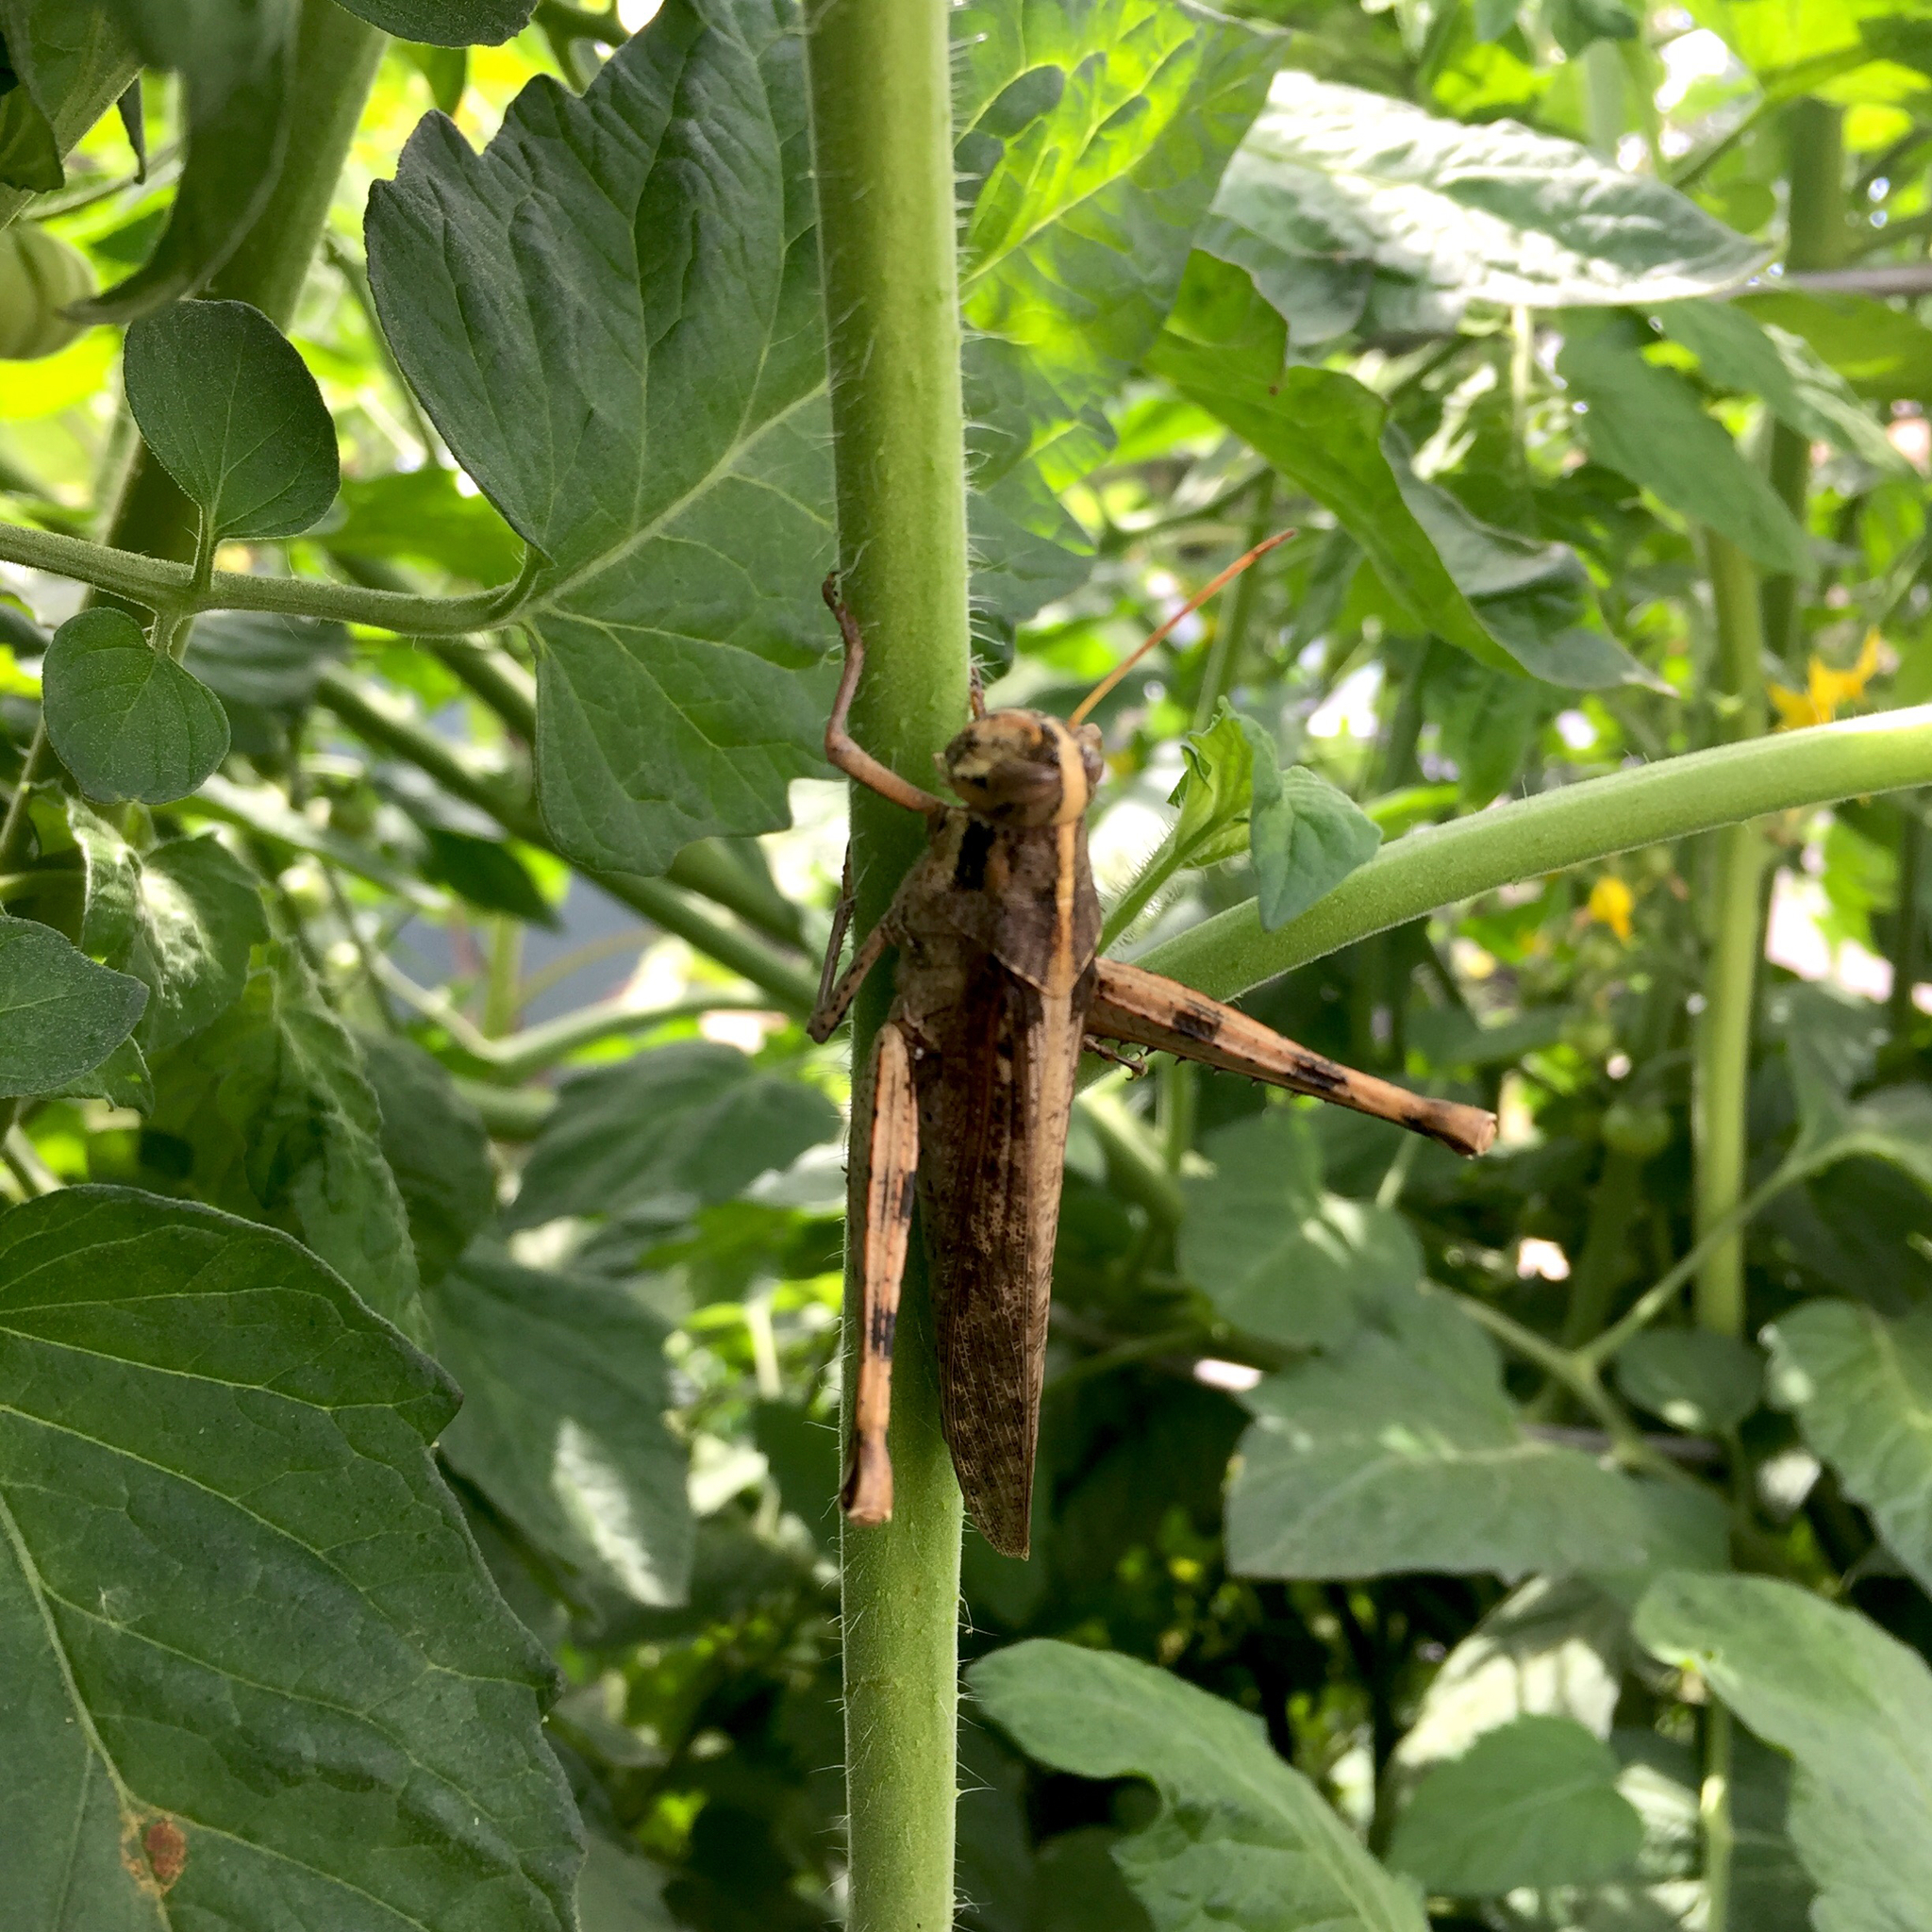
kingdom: Animalia
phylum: Arthropoda
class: Insecta
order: Orthoptera
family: Acrididae
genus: Schistocerca
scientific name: Schistocerca nitens
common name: Vagrant grasshopper
